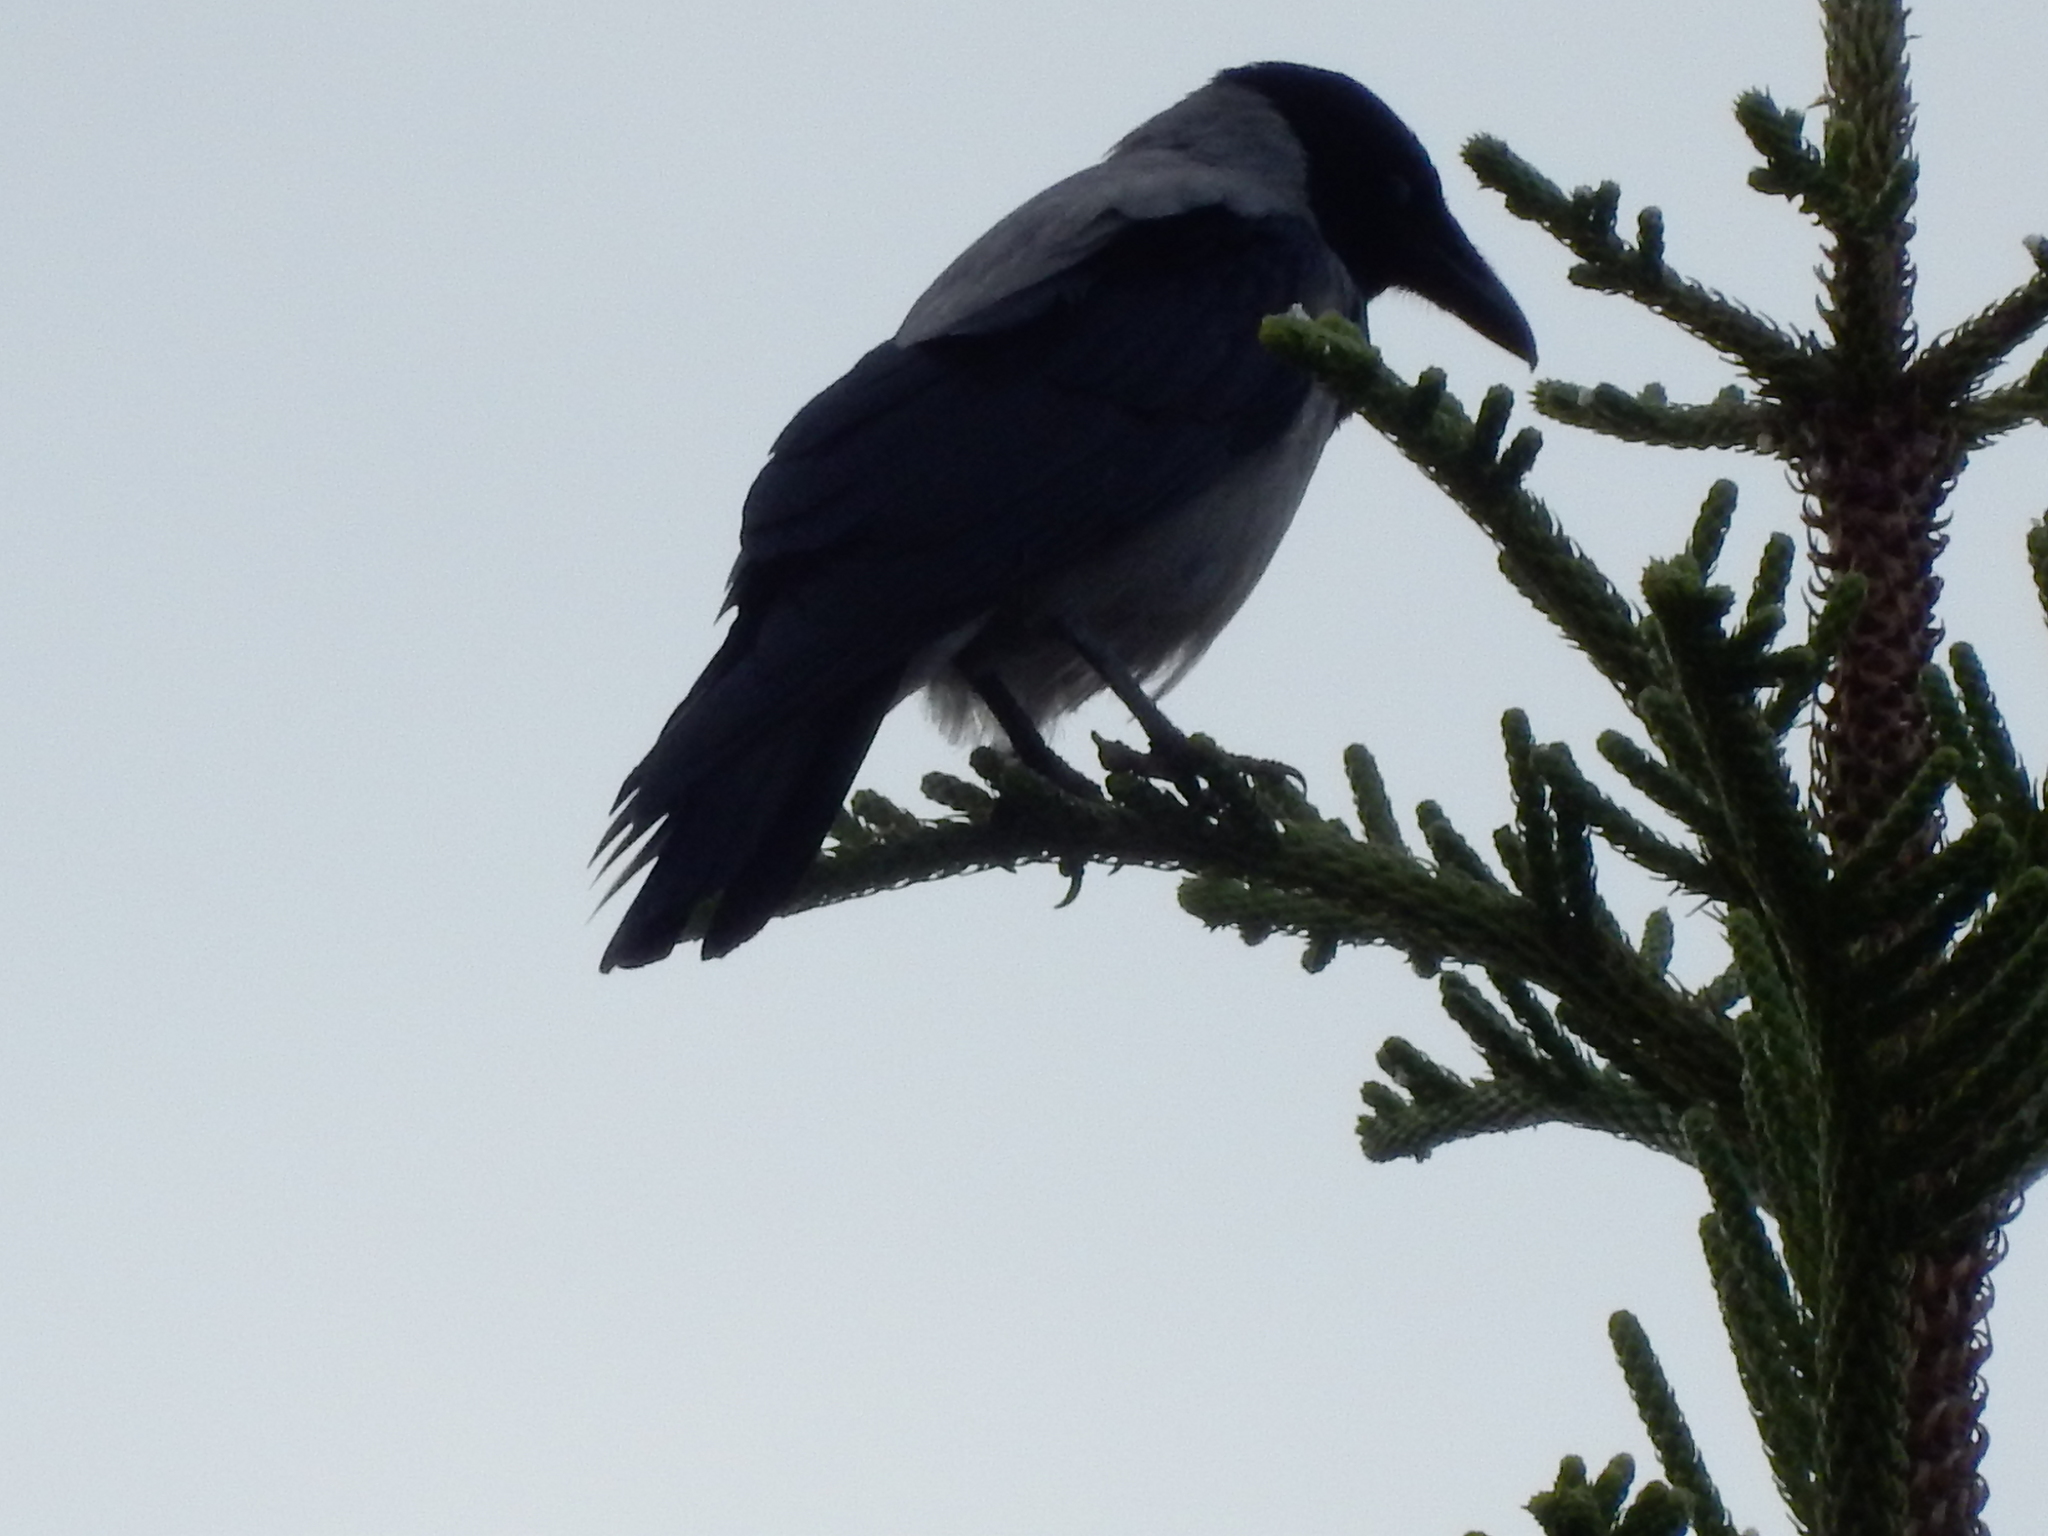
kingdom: Animalia
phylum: Chordata
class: Aves
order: Passeriformes
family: Corvidae
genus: Corvus
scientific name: Corvus cornix
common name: Hooded crow
